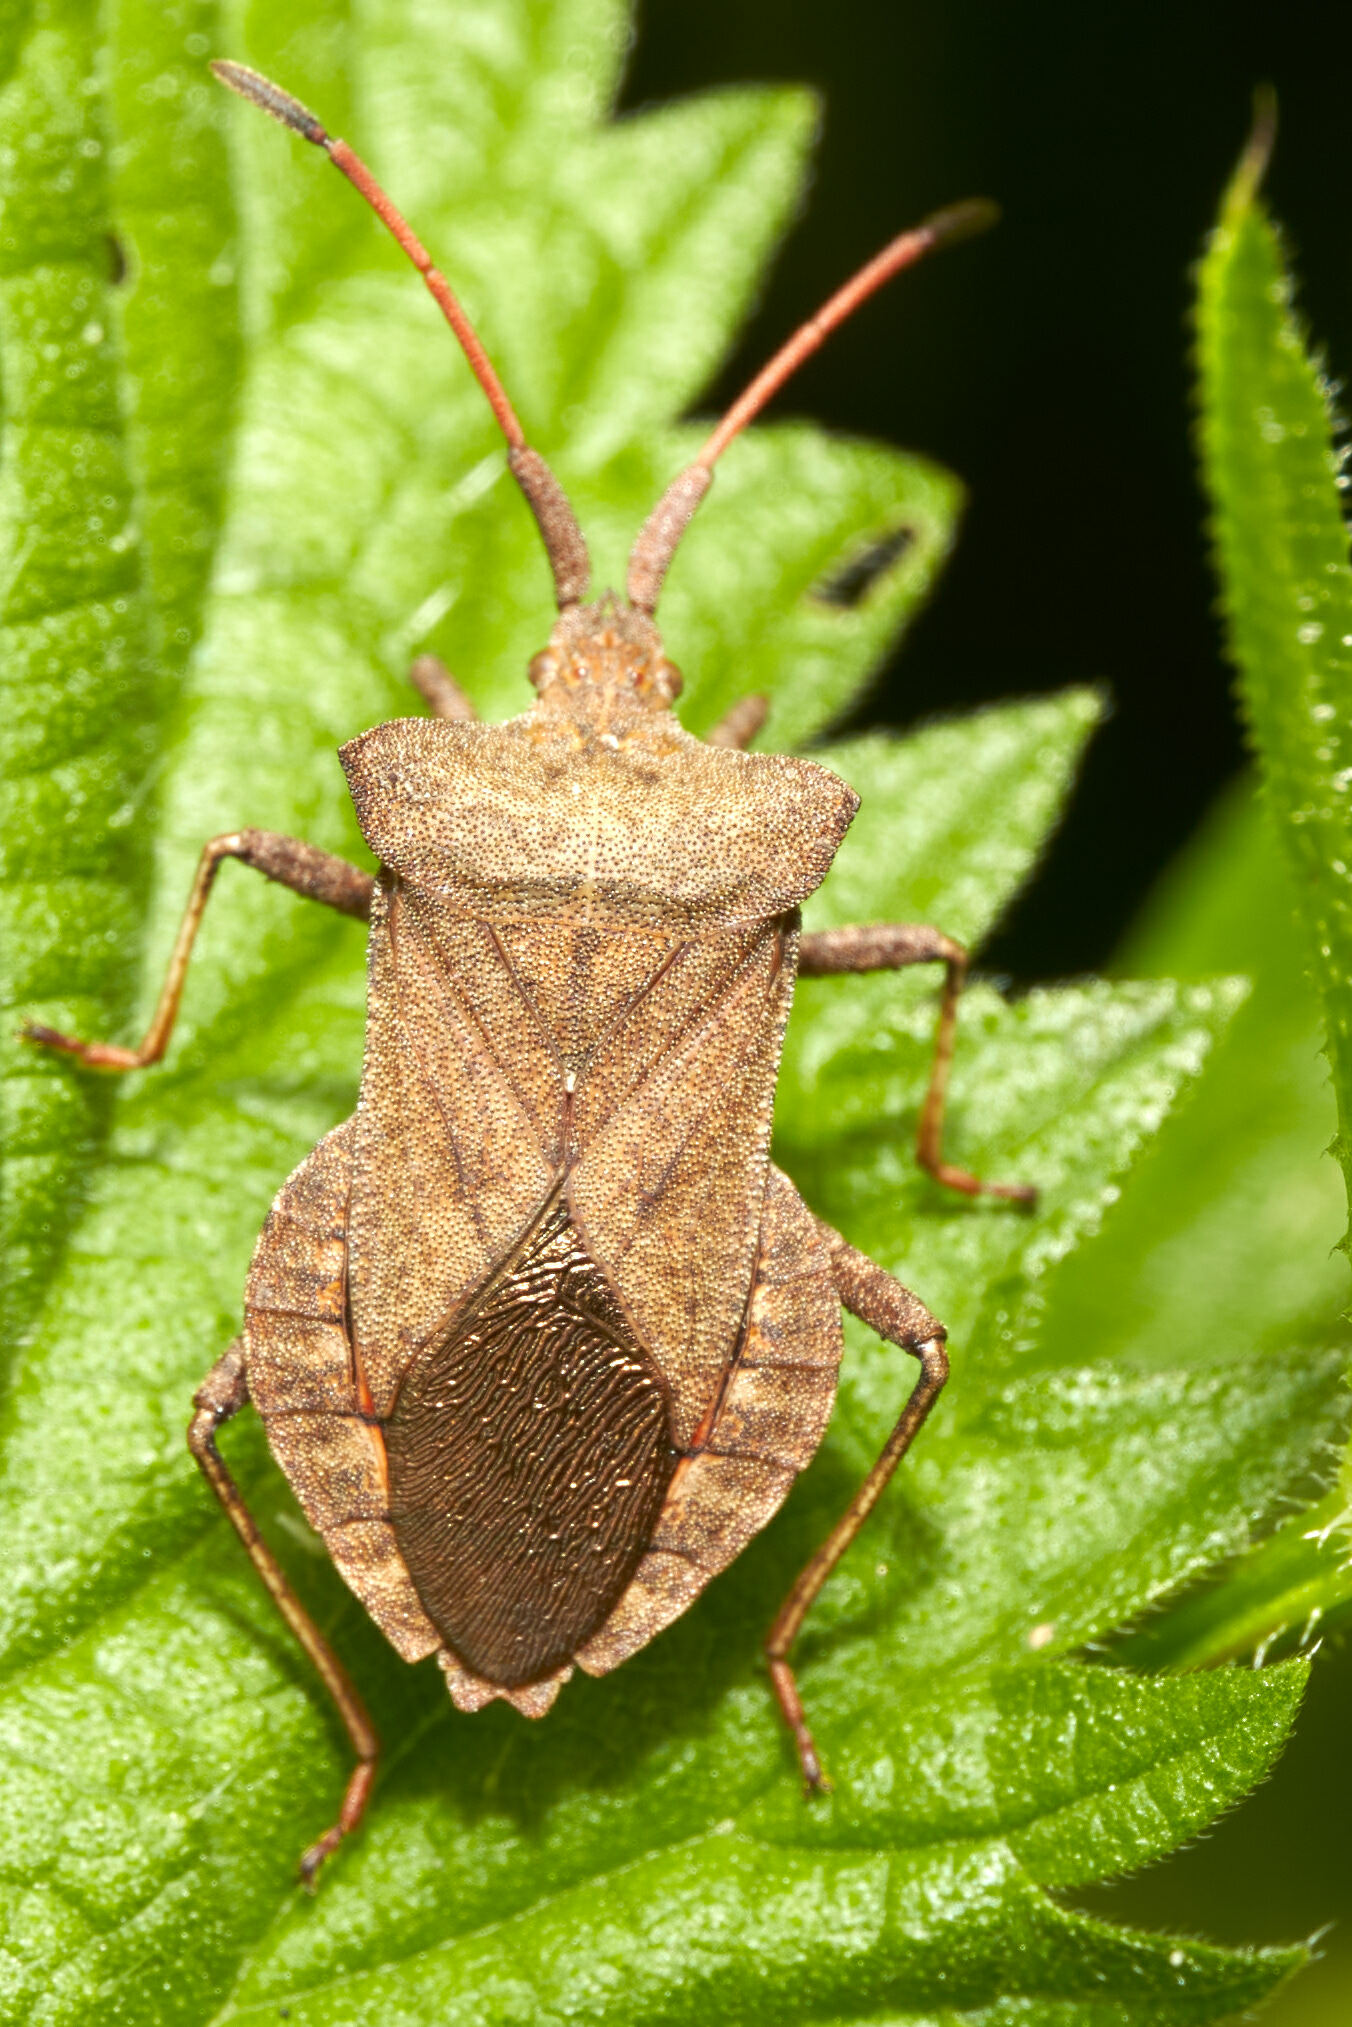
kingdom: Animalia
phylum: Arthropoda
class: Insecta
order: Hemiptera
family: Coreidae
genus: Coreus
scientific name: Coreus marginatus
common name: Dock bug
